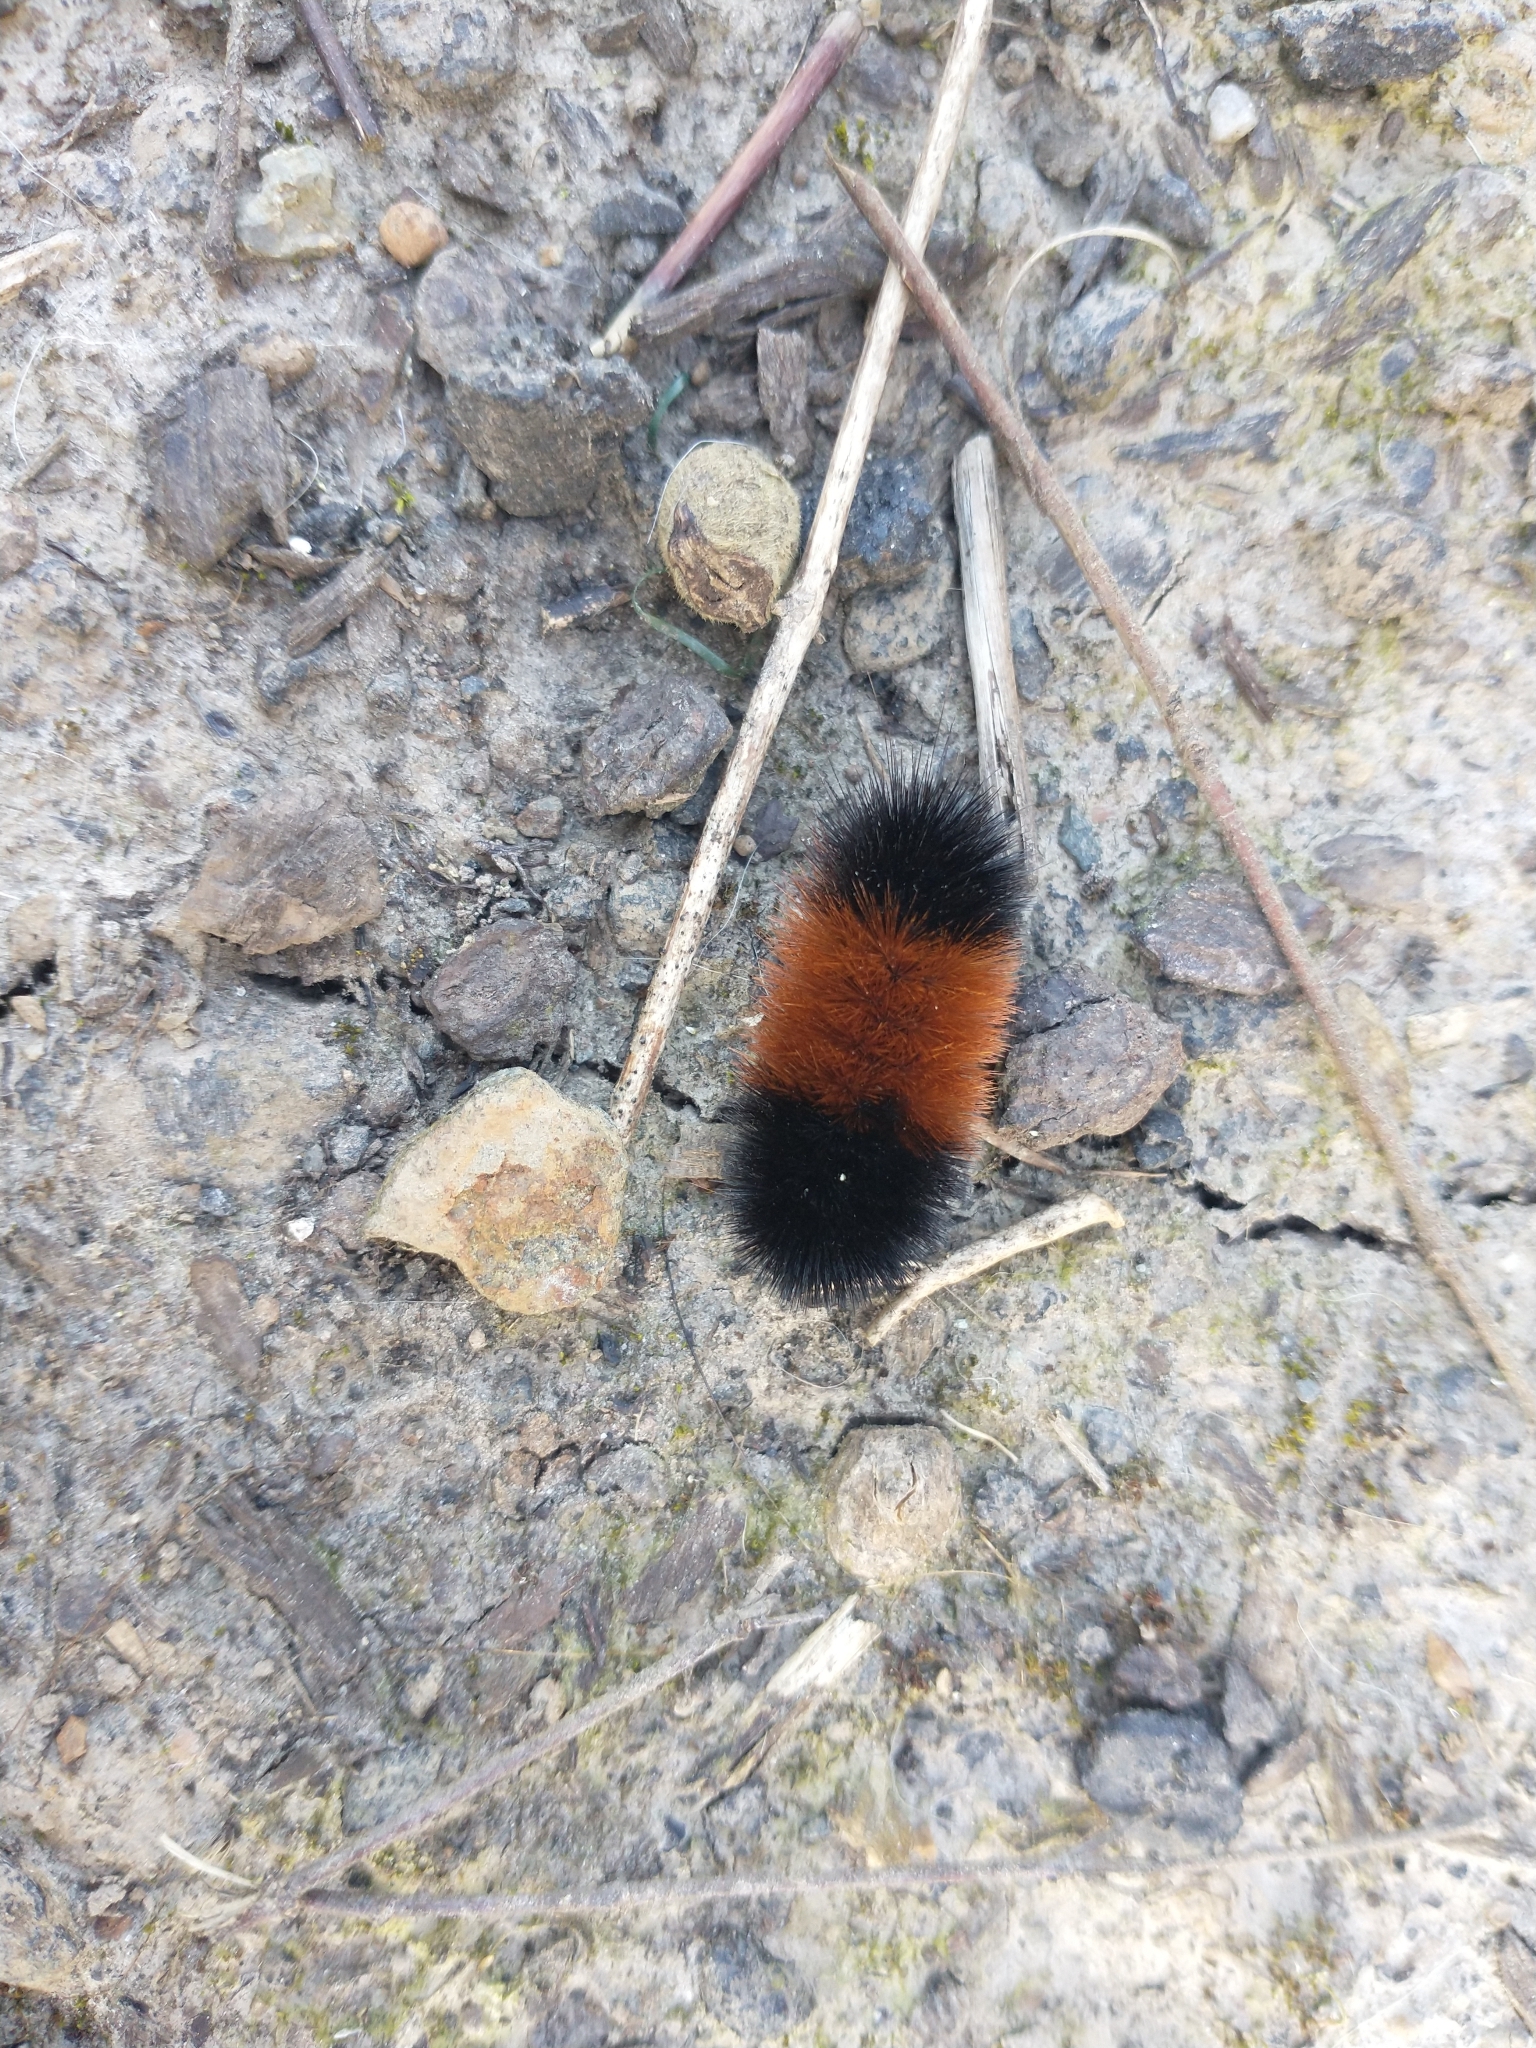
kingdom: Animalia
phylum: Arthropoda
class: Insecta
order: Lepidoptera
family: Erebidae
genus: Pyrrharctia
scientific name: Pyrrharctia isabella
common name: Isabella tiger moth
